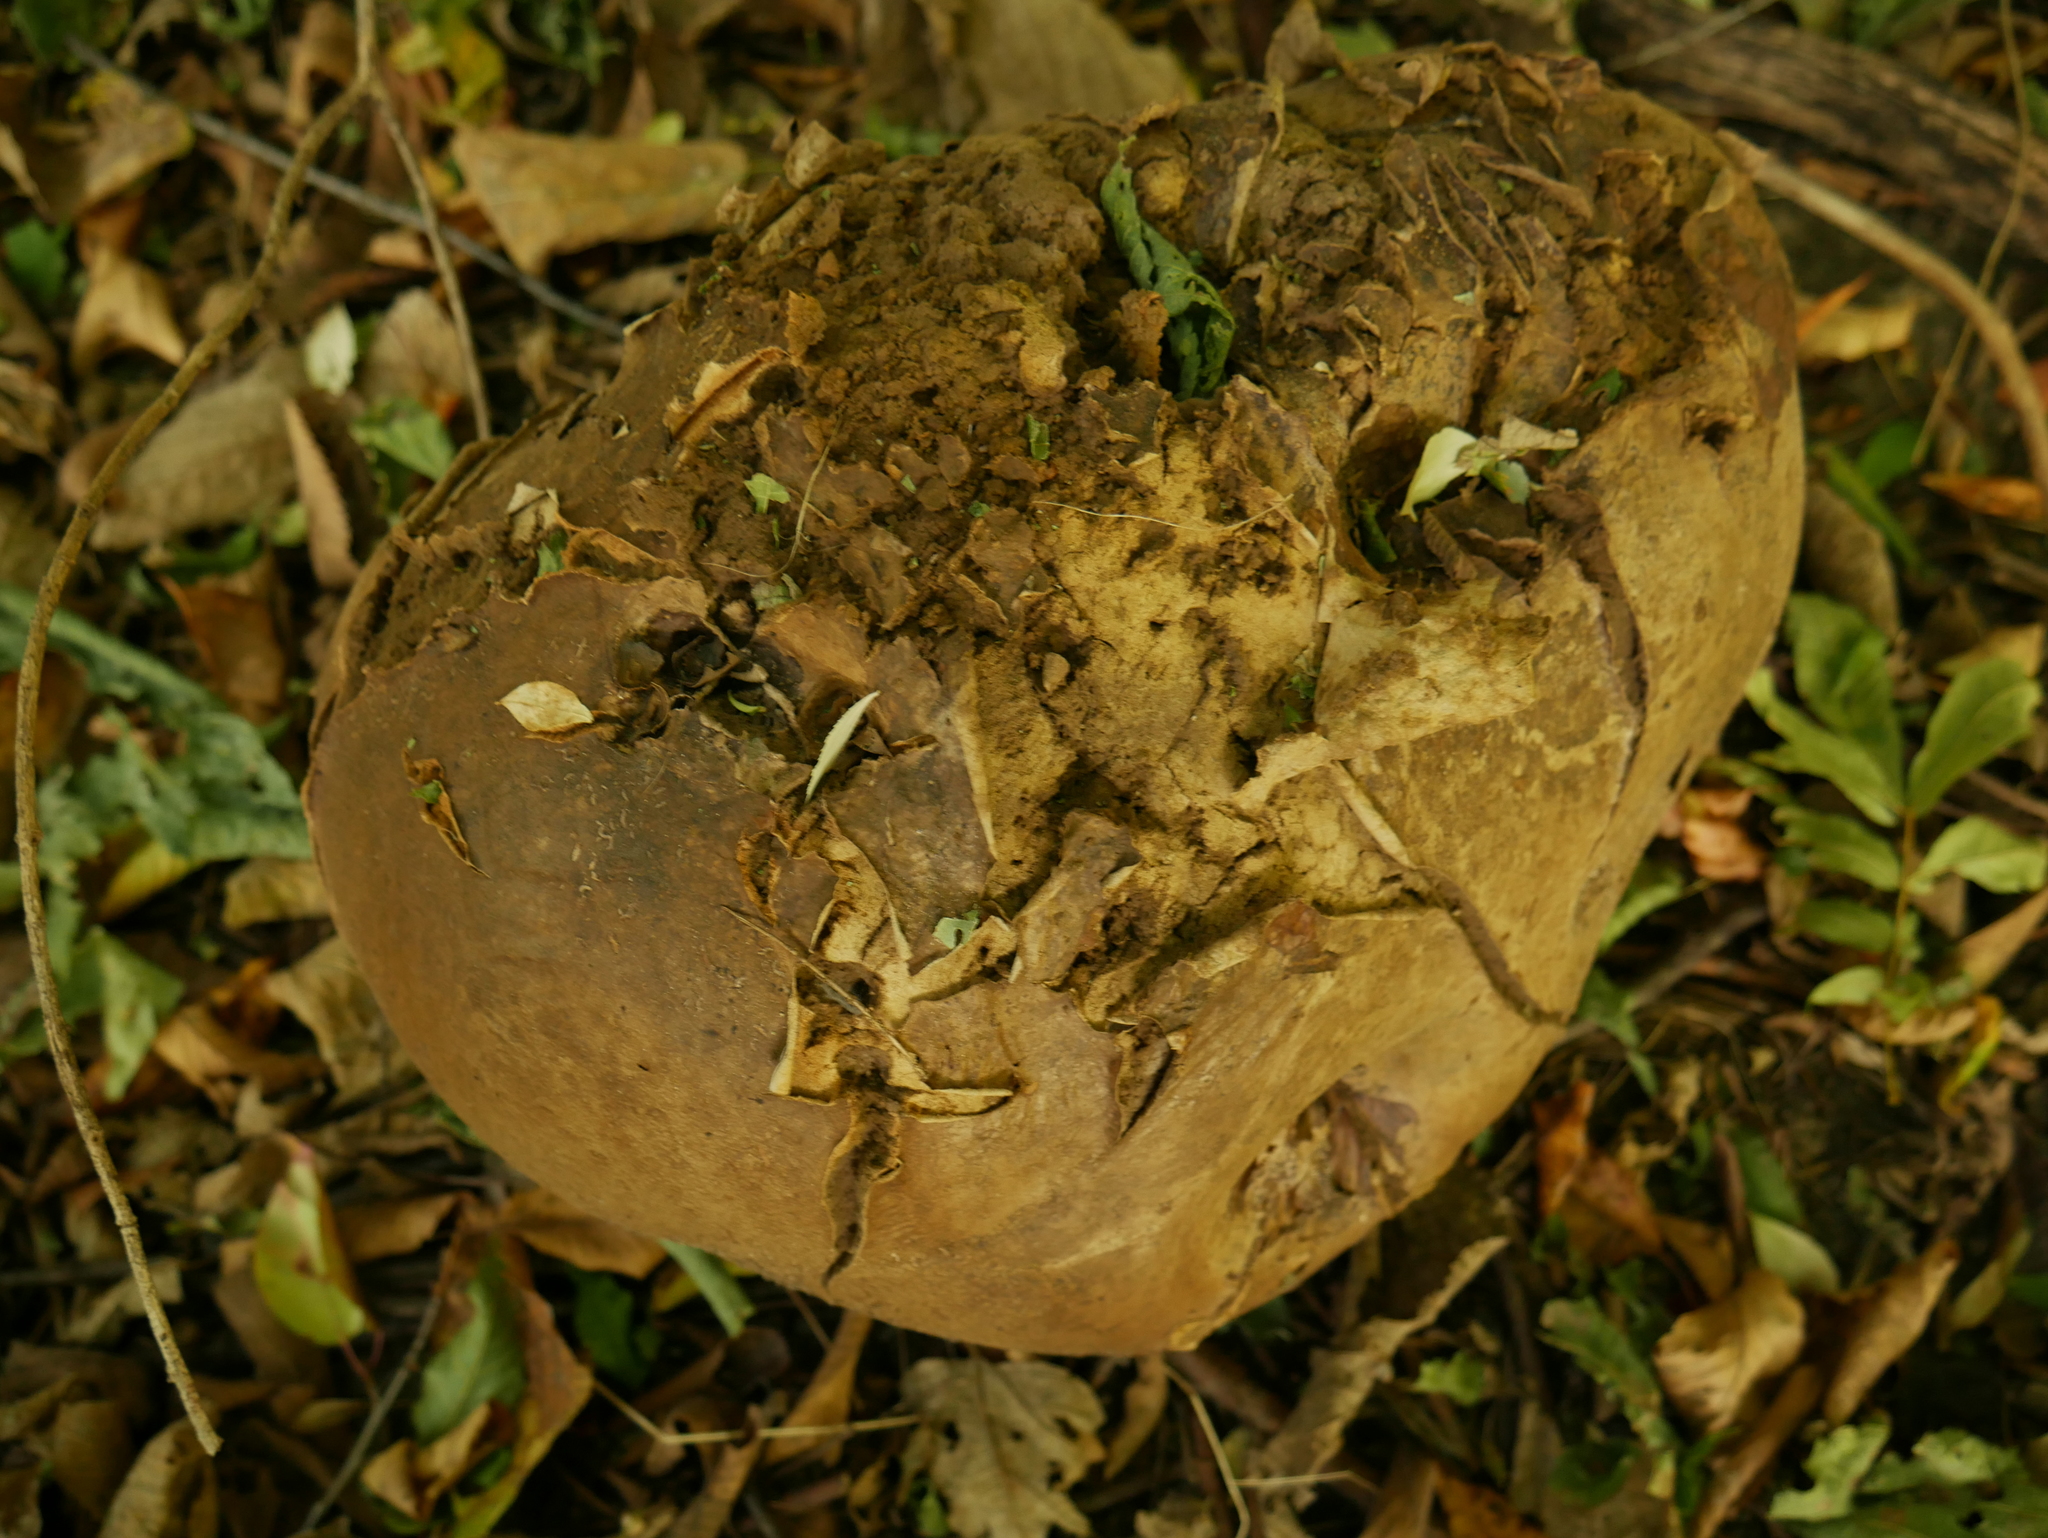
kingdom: Fungi
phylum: Basidiomycota
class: Agaricomycetes
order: Agaricales
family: Lycoperdaceae
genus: Calvatia
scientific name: Calvatia gigantea
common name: Giant puffball
